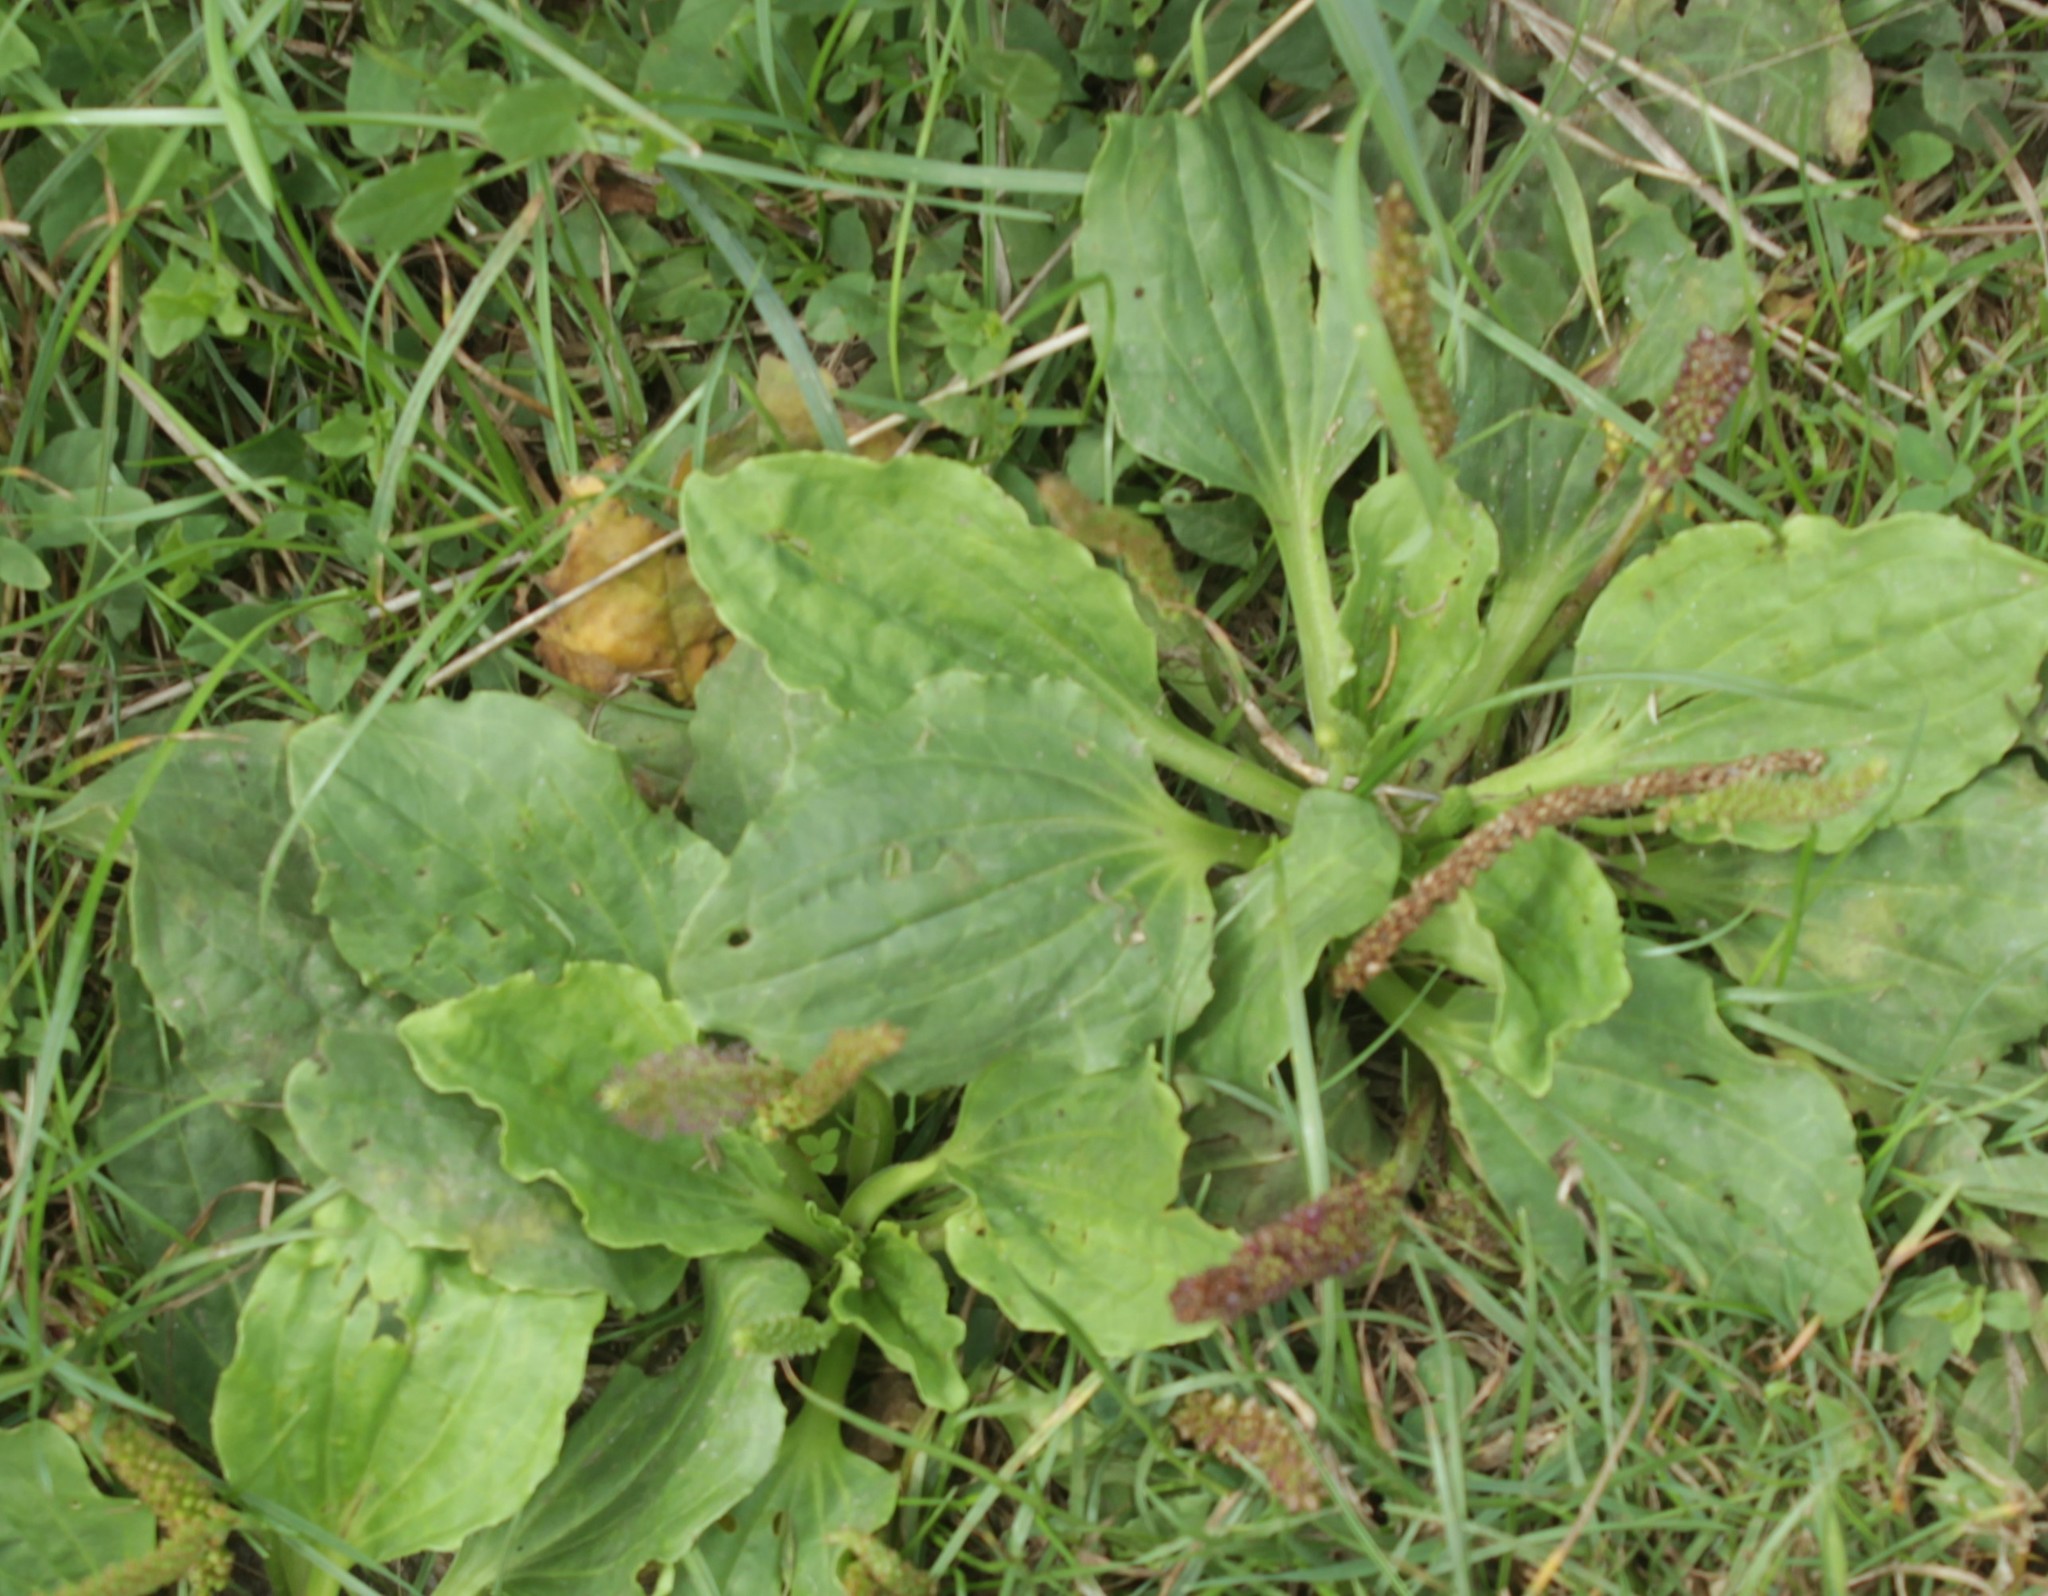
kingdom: Plantae
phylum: Tracheophyta
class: Magnoliopsida
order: Lamiales
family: Plantaginaceae
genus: Plantago
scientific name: Plantago major
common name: Common plantain
